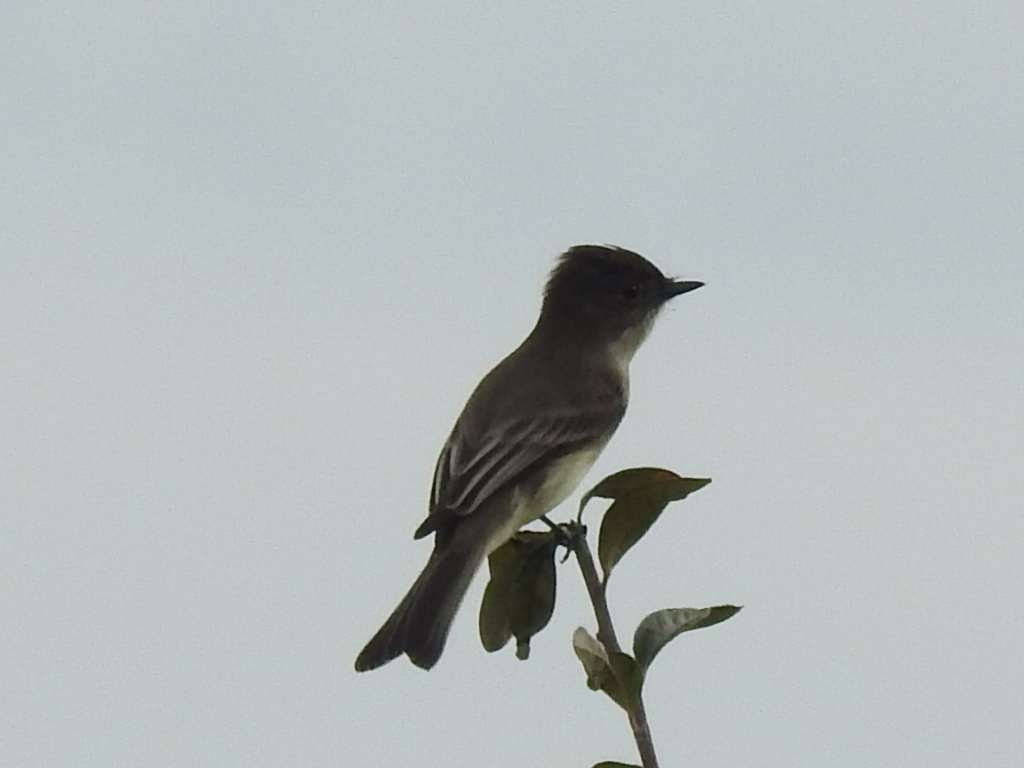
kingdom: Animalia
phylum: Chordata
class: Aves
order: Passeriformes
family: Tyrannidae
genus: Sayornis
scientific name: Sayornis phoebe
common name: Eastern phoebe
